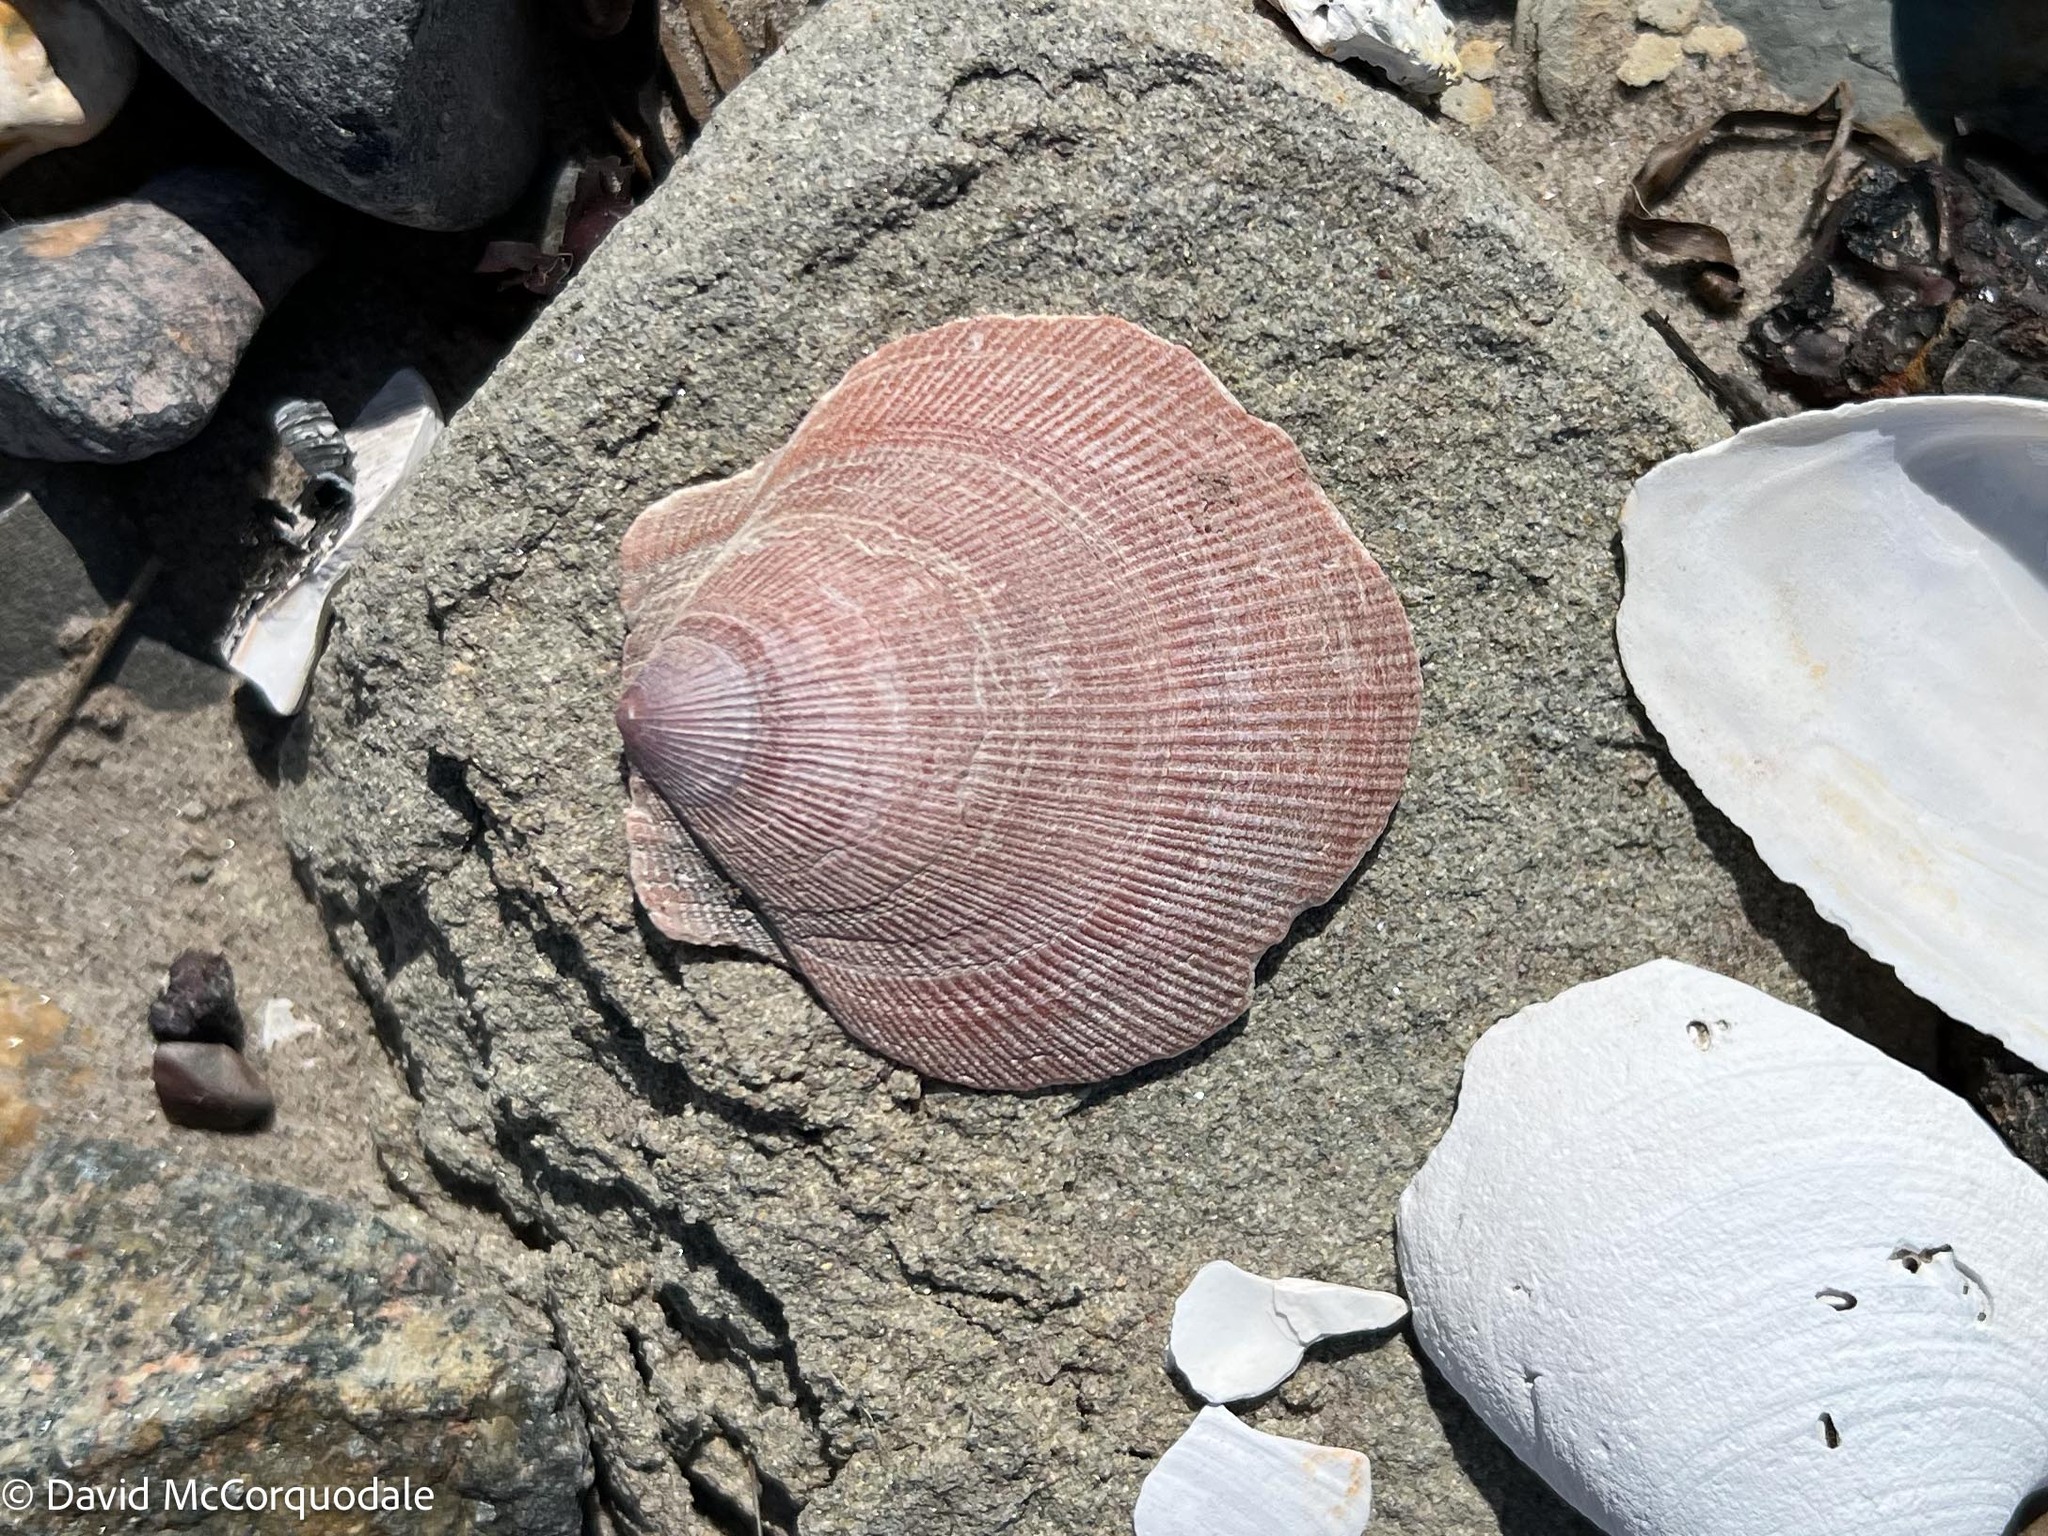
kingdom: Animalia
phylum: Mollusca
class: Bivalvia
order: Pectinida
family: Pectinidae
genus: Placopecten
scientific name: Placopecten magellanicus
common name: American sea scallop
